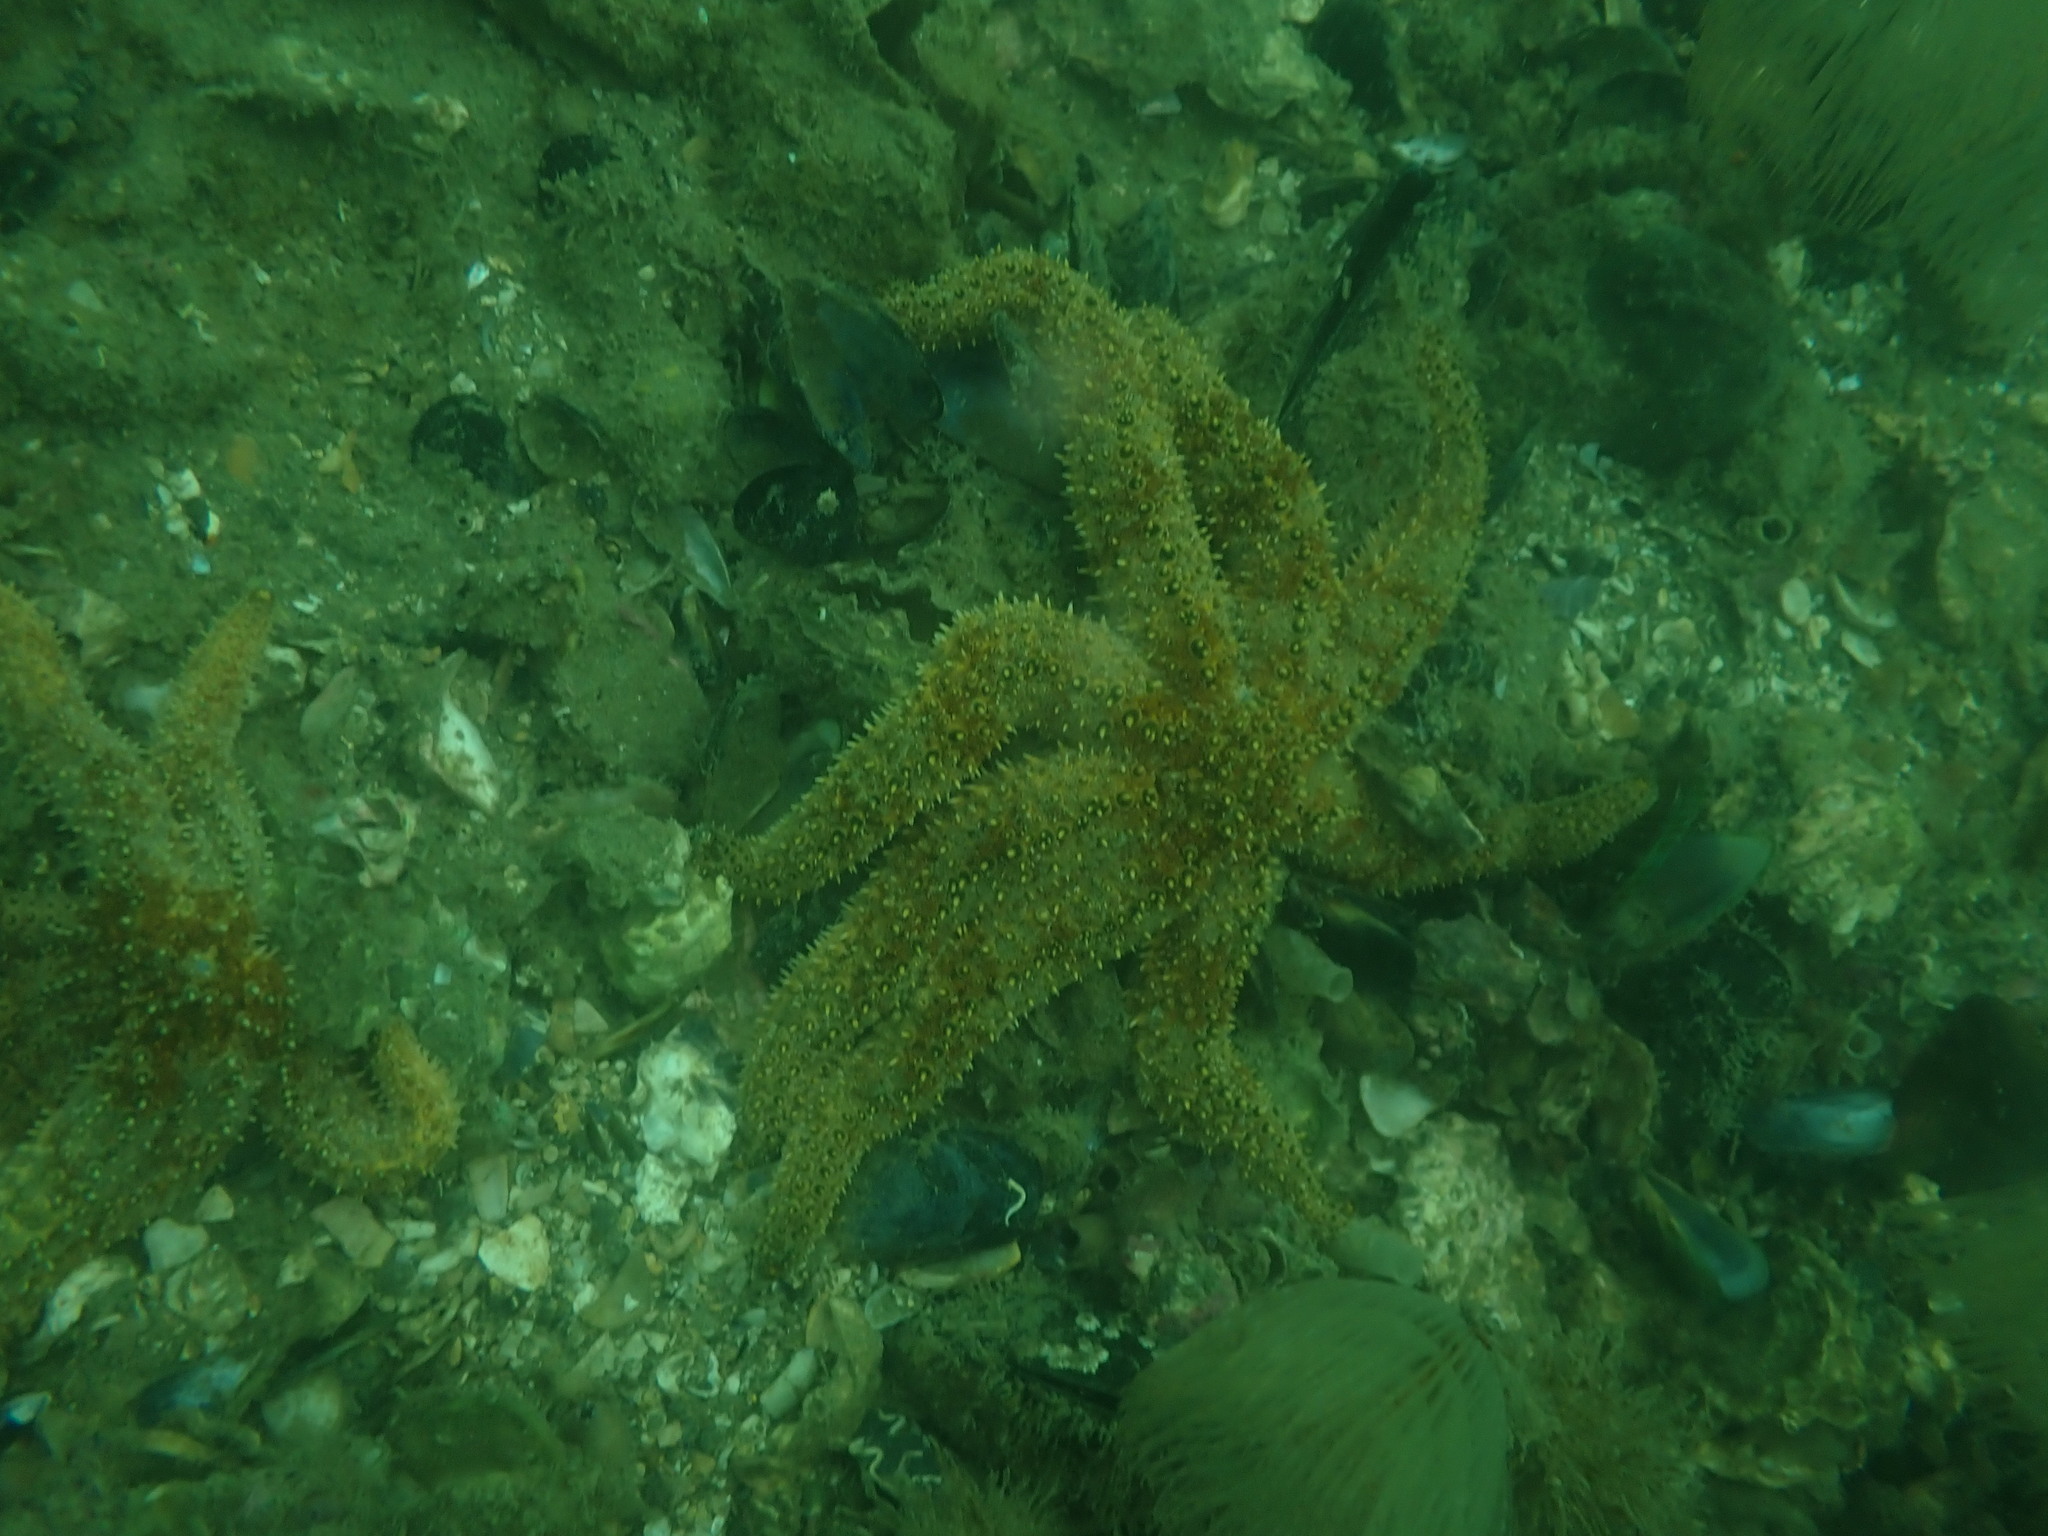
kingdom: Animalia
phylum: Echinodermata
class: Asteroidea
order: Forcipulatida
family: Asteriidae
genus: Coscinasterias
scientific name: Coscinasterias muricata
